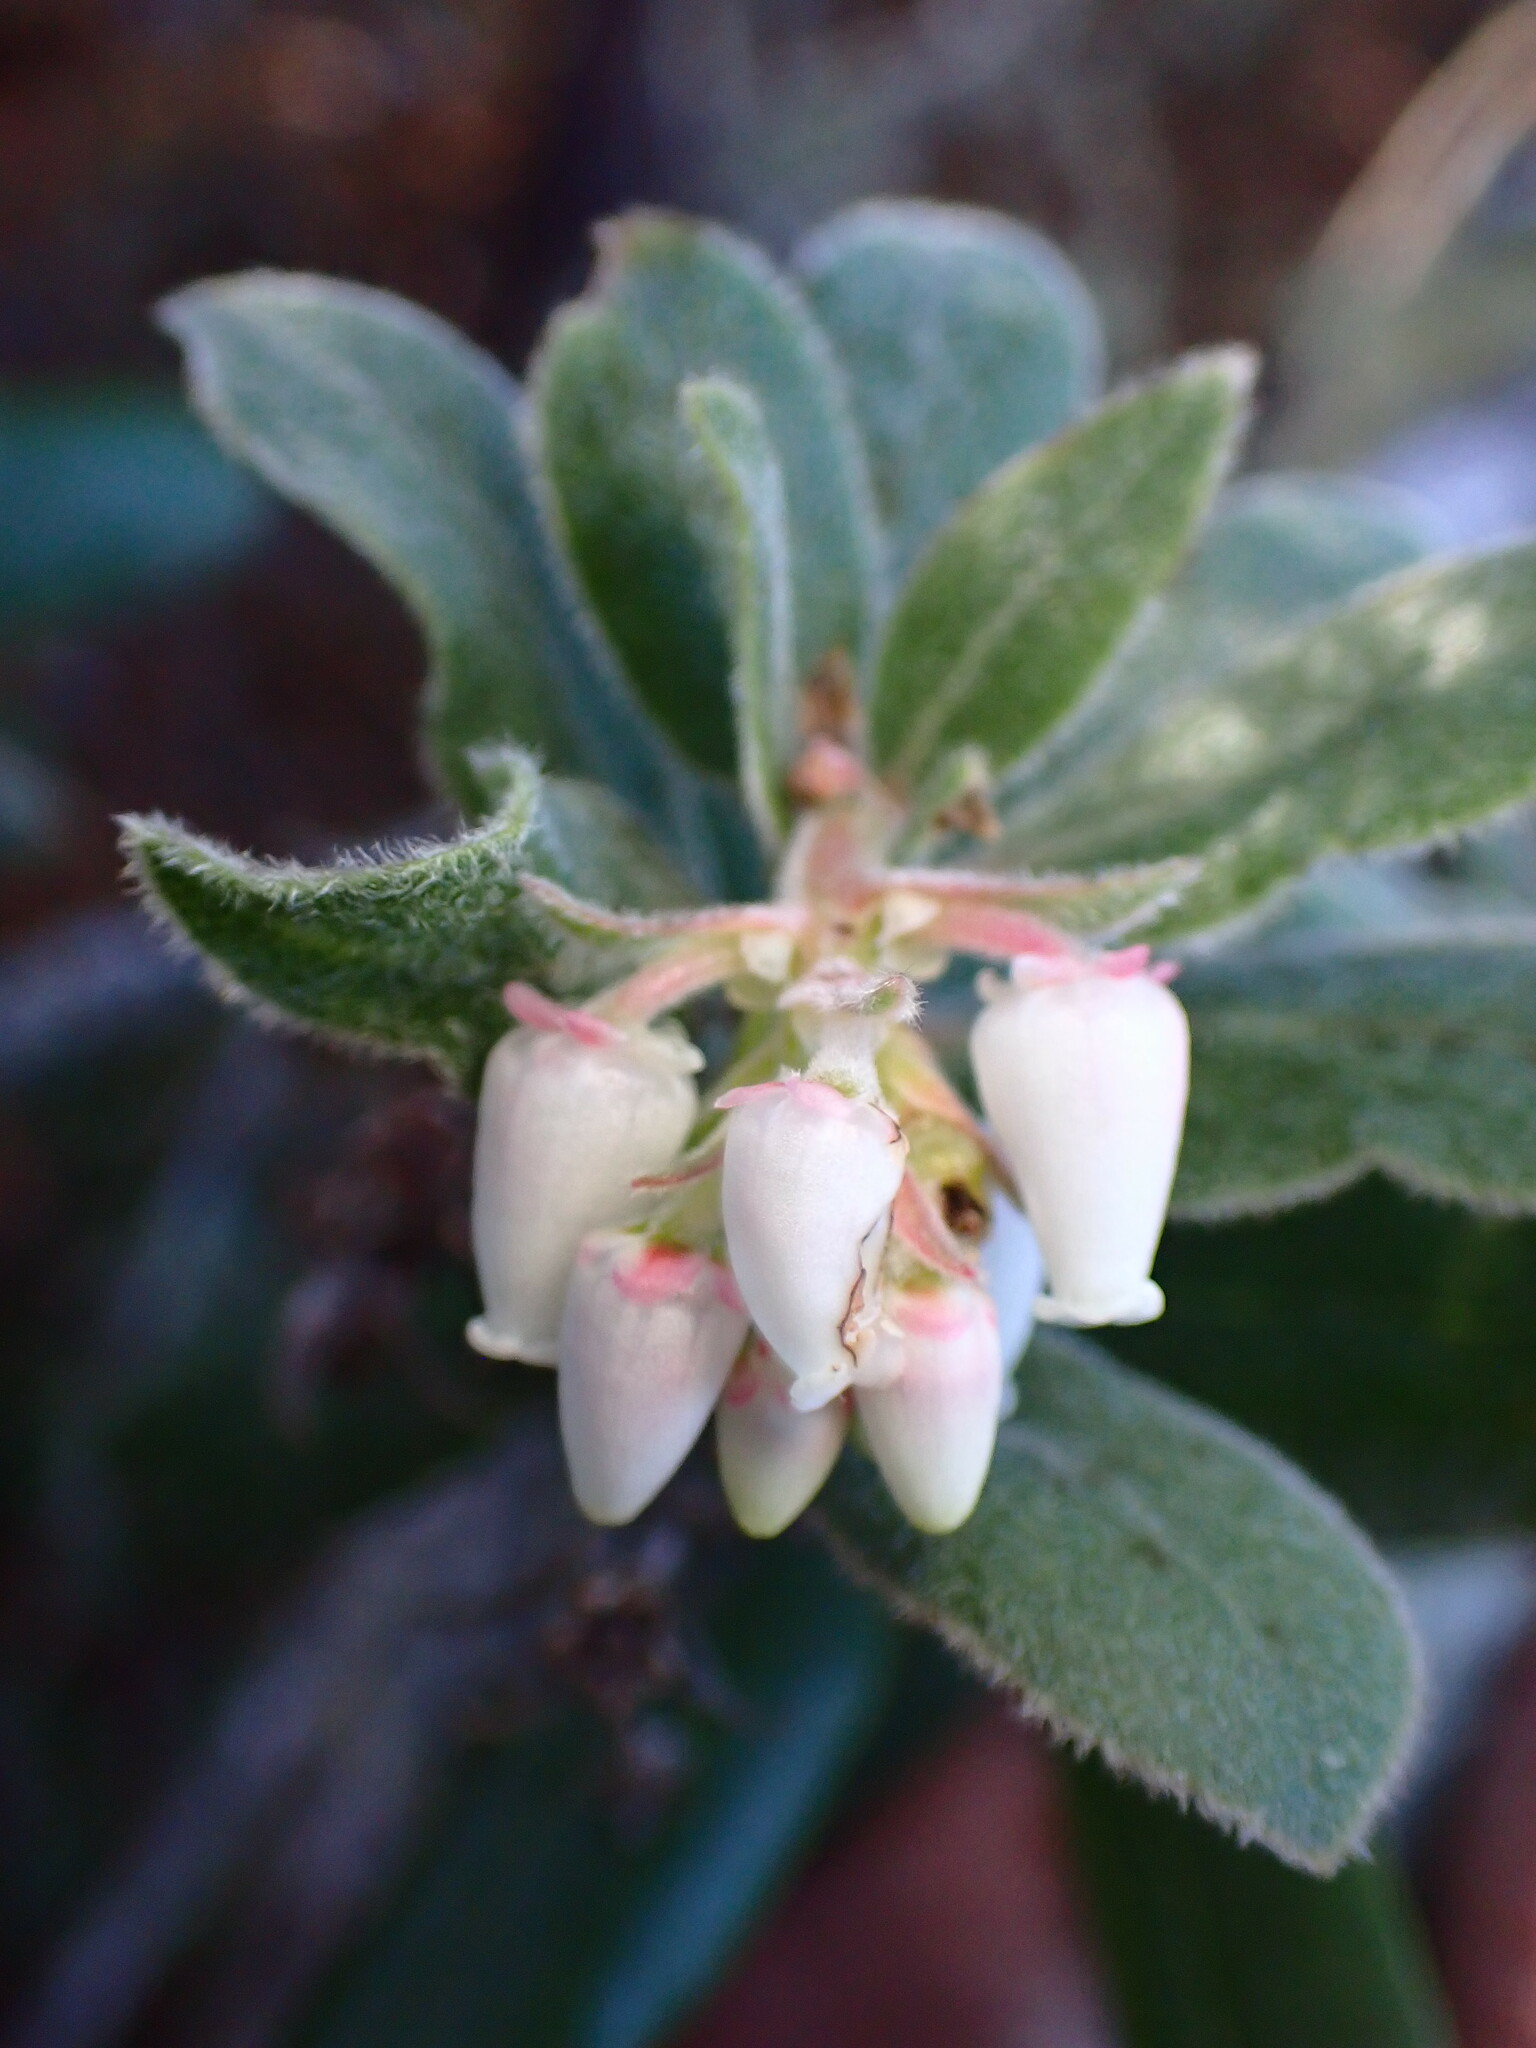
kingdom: Plantae
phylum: Tracheophyta
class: Magnoliopsida
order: Ericales
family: Ericaceae
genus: Arctostaphylos
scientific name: Arctostaphylos tomentosa
